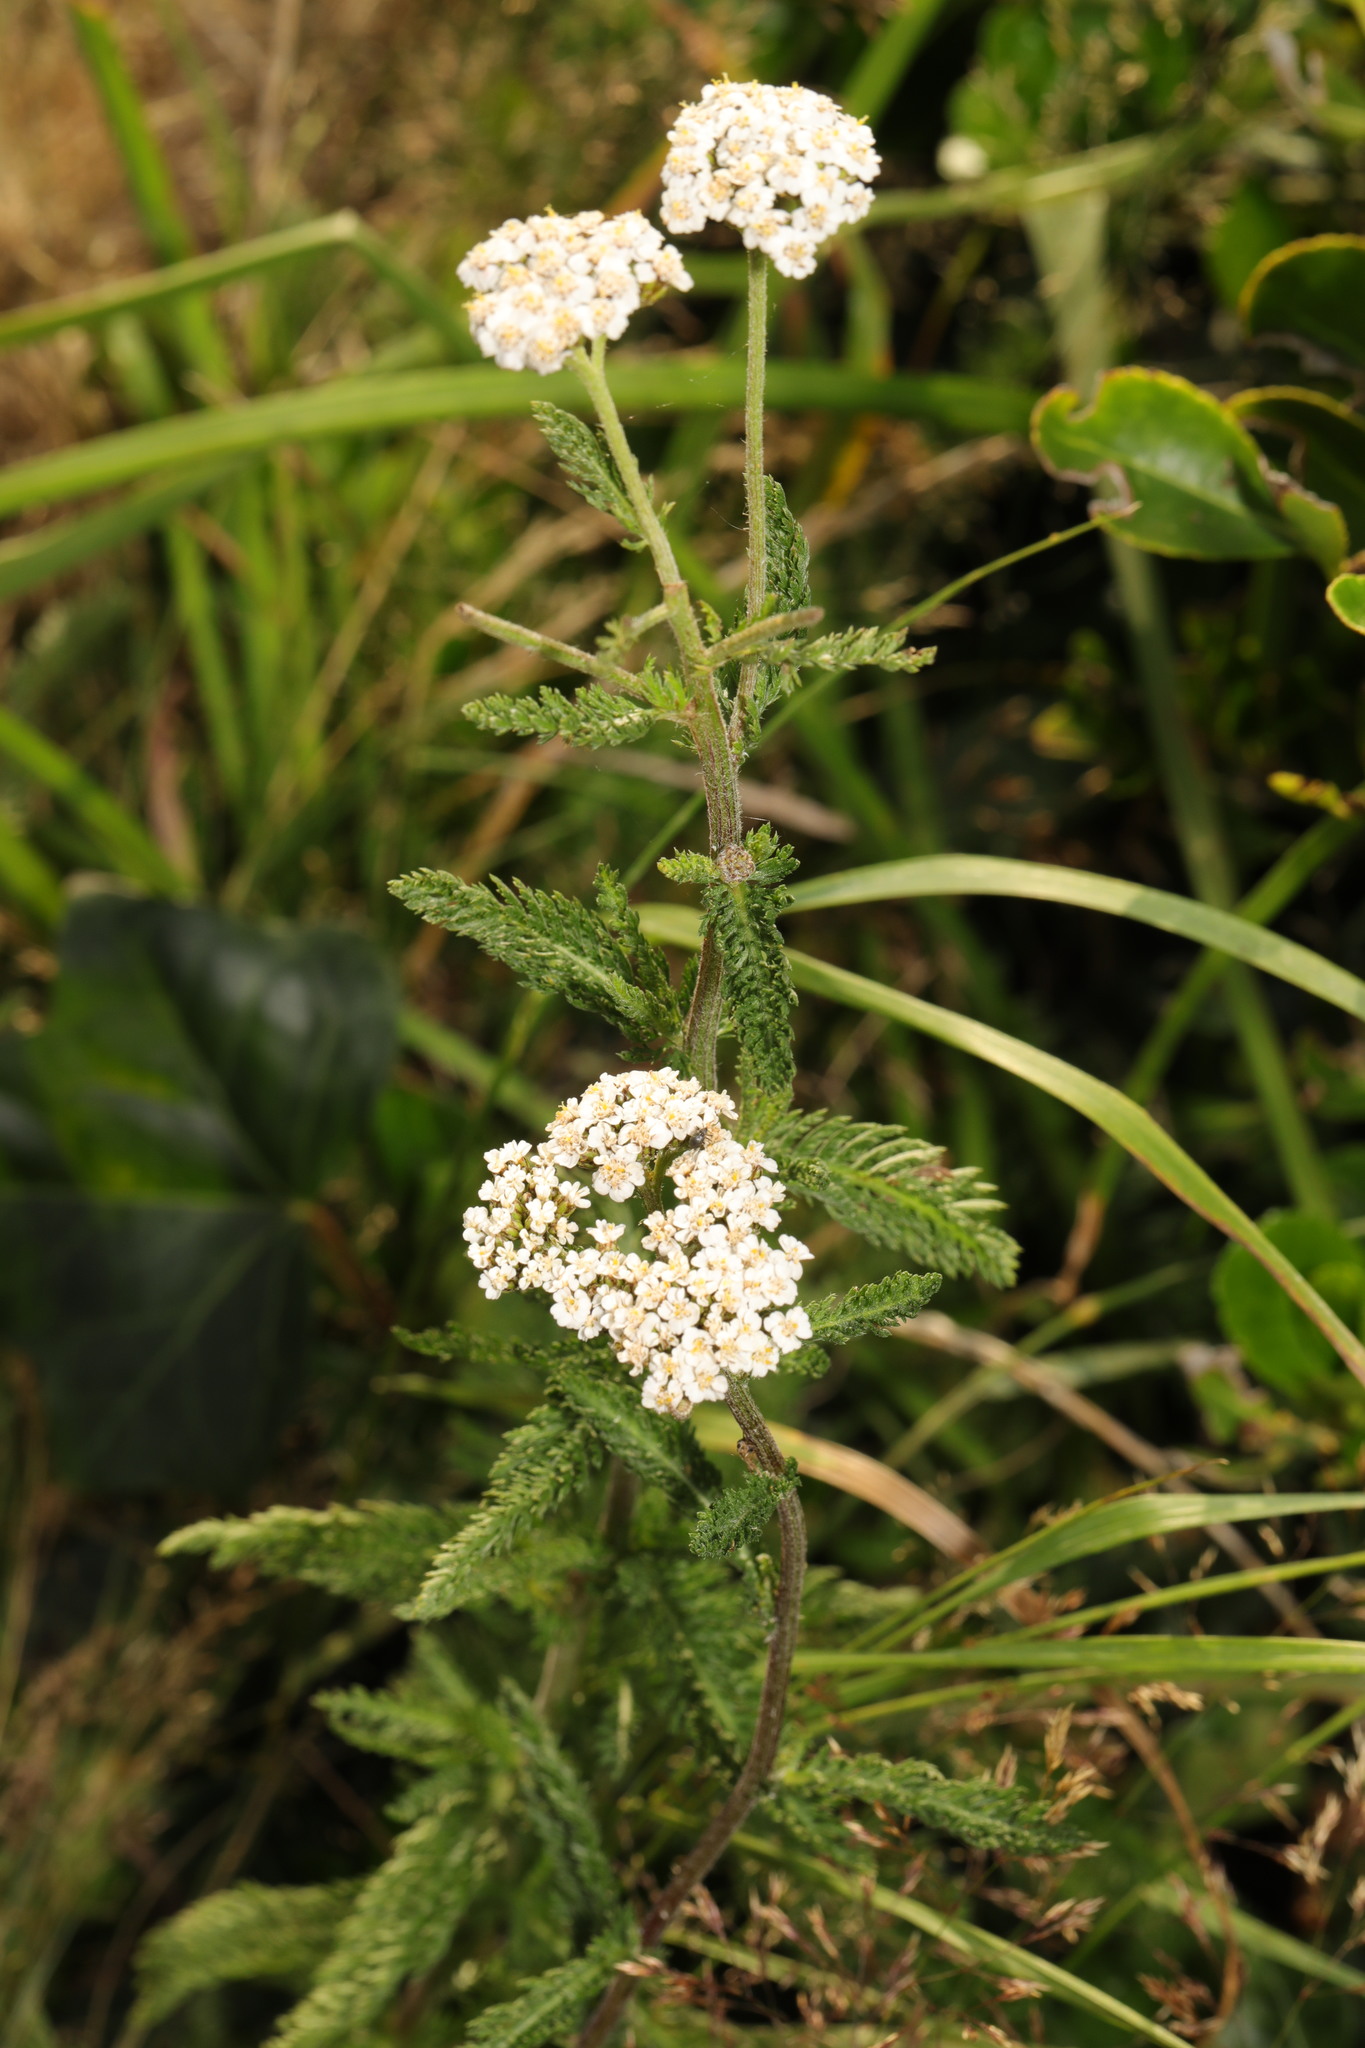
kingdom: Plantae
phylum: Tracheophyta
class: Magnoliopsida
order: Asterales
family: Asteraceae
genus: Achillea
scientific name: Achillea millefolium
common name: Yarrow
